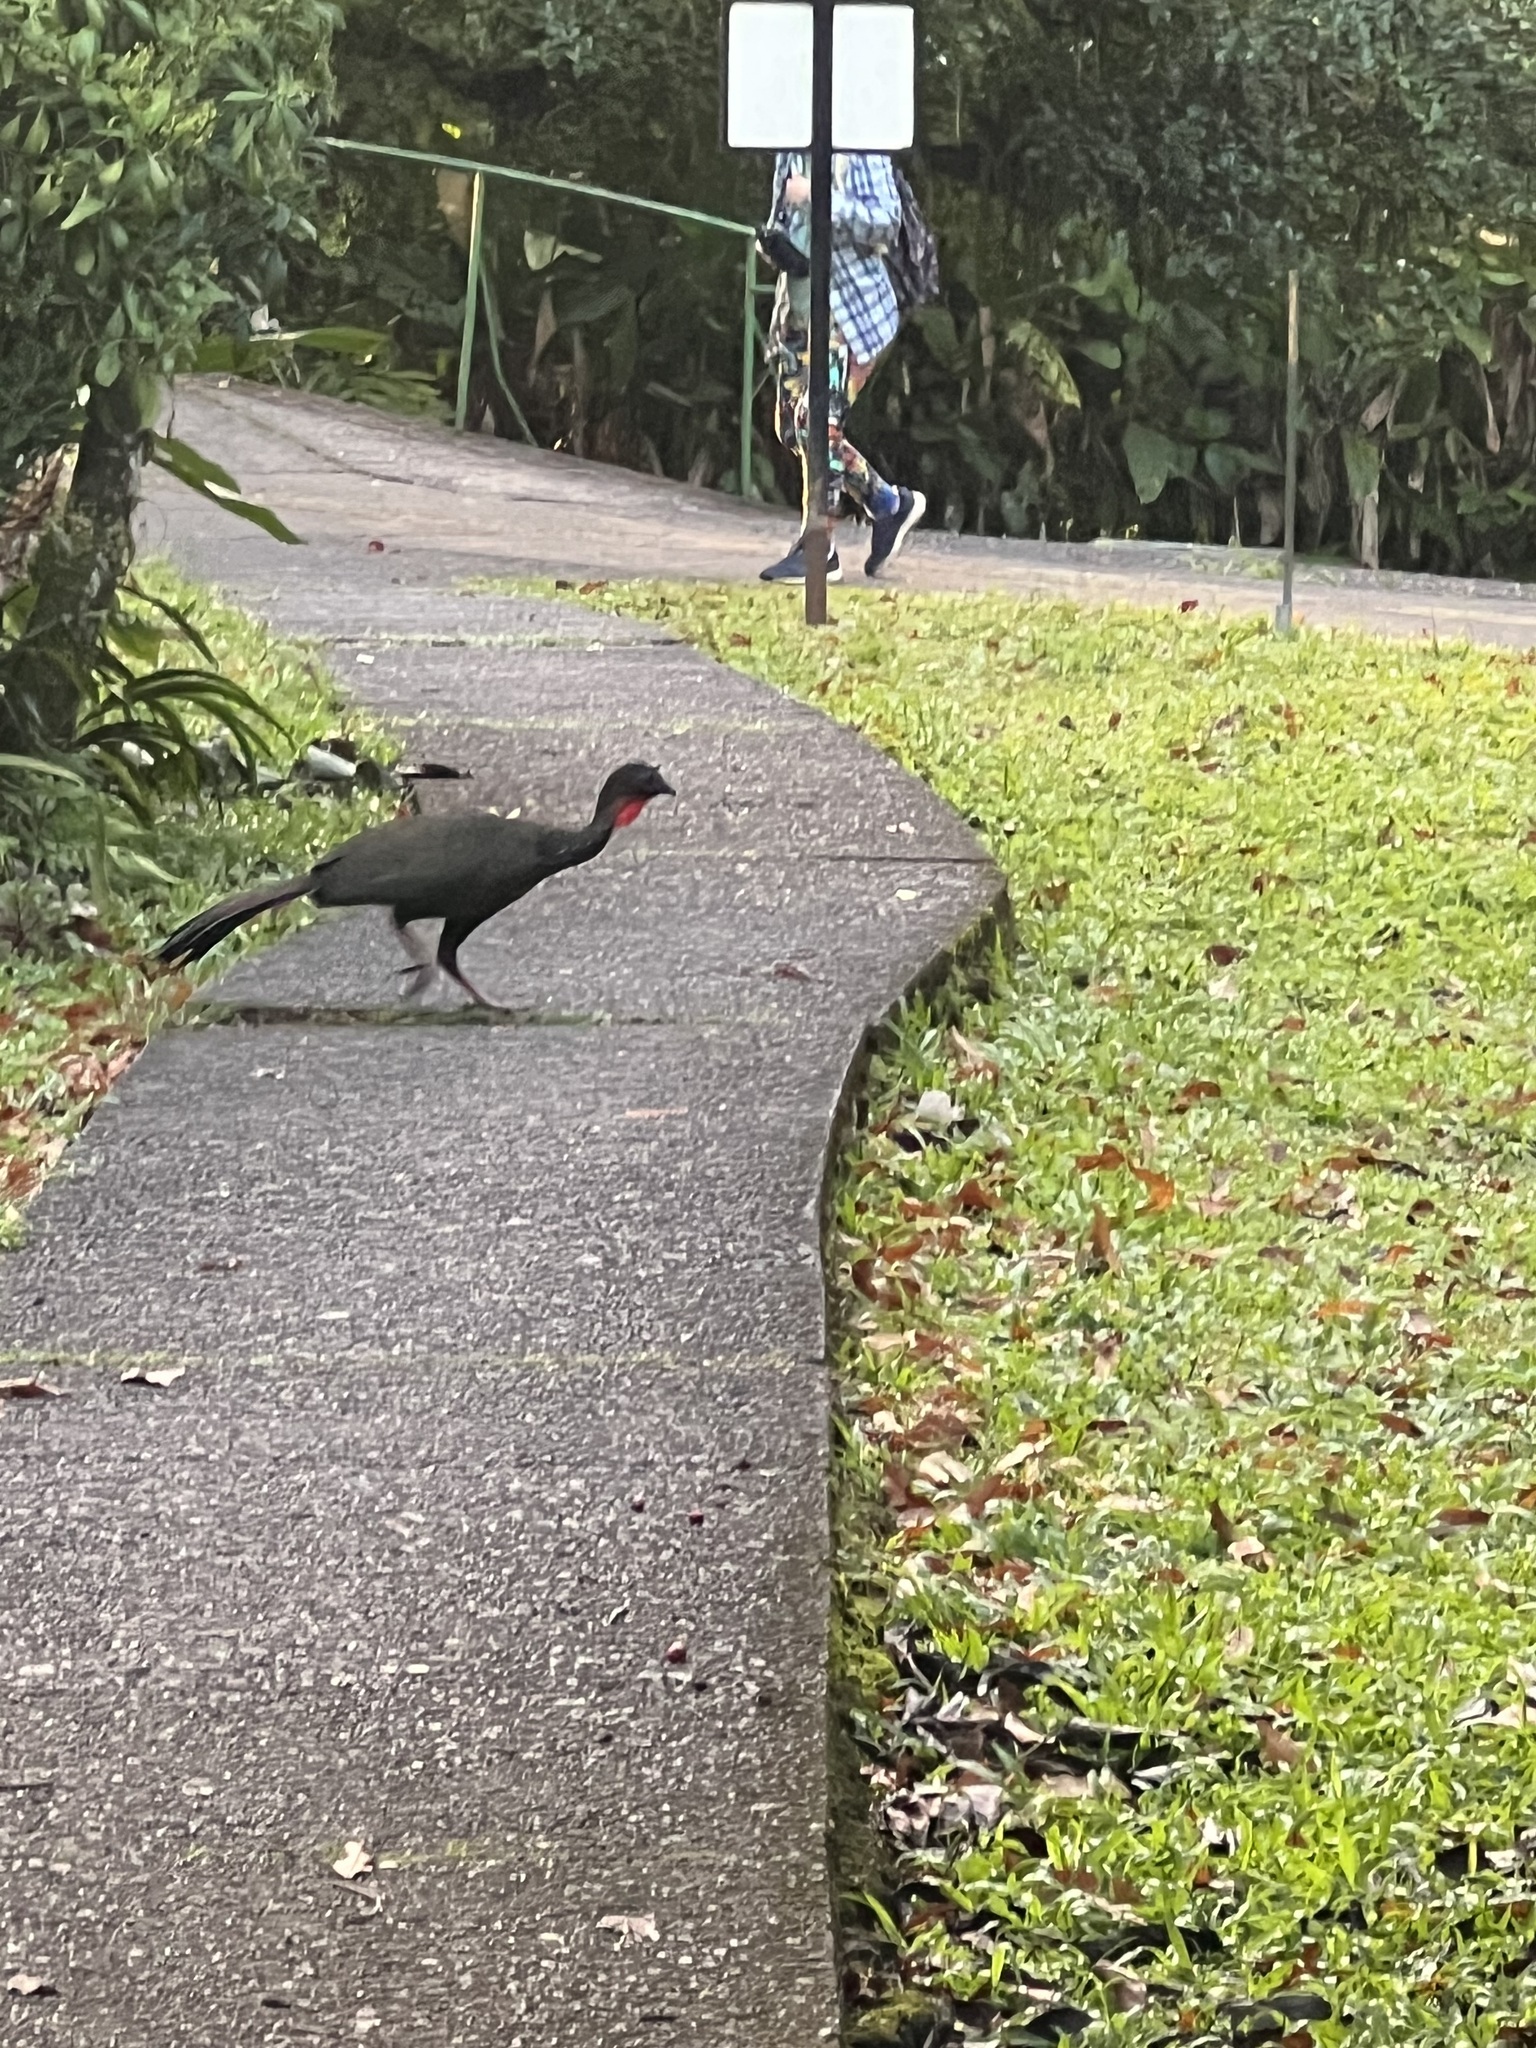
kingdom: Animalia
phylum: Chordata
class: Aves
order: Galliformes
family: Cracidae
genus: Penelope
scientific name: Penelope purpurascens
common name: Crested guan
